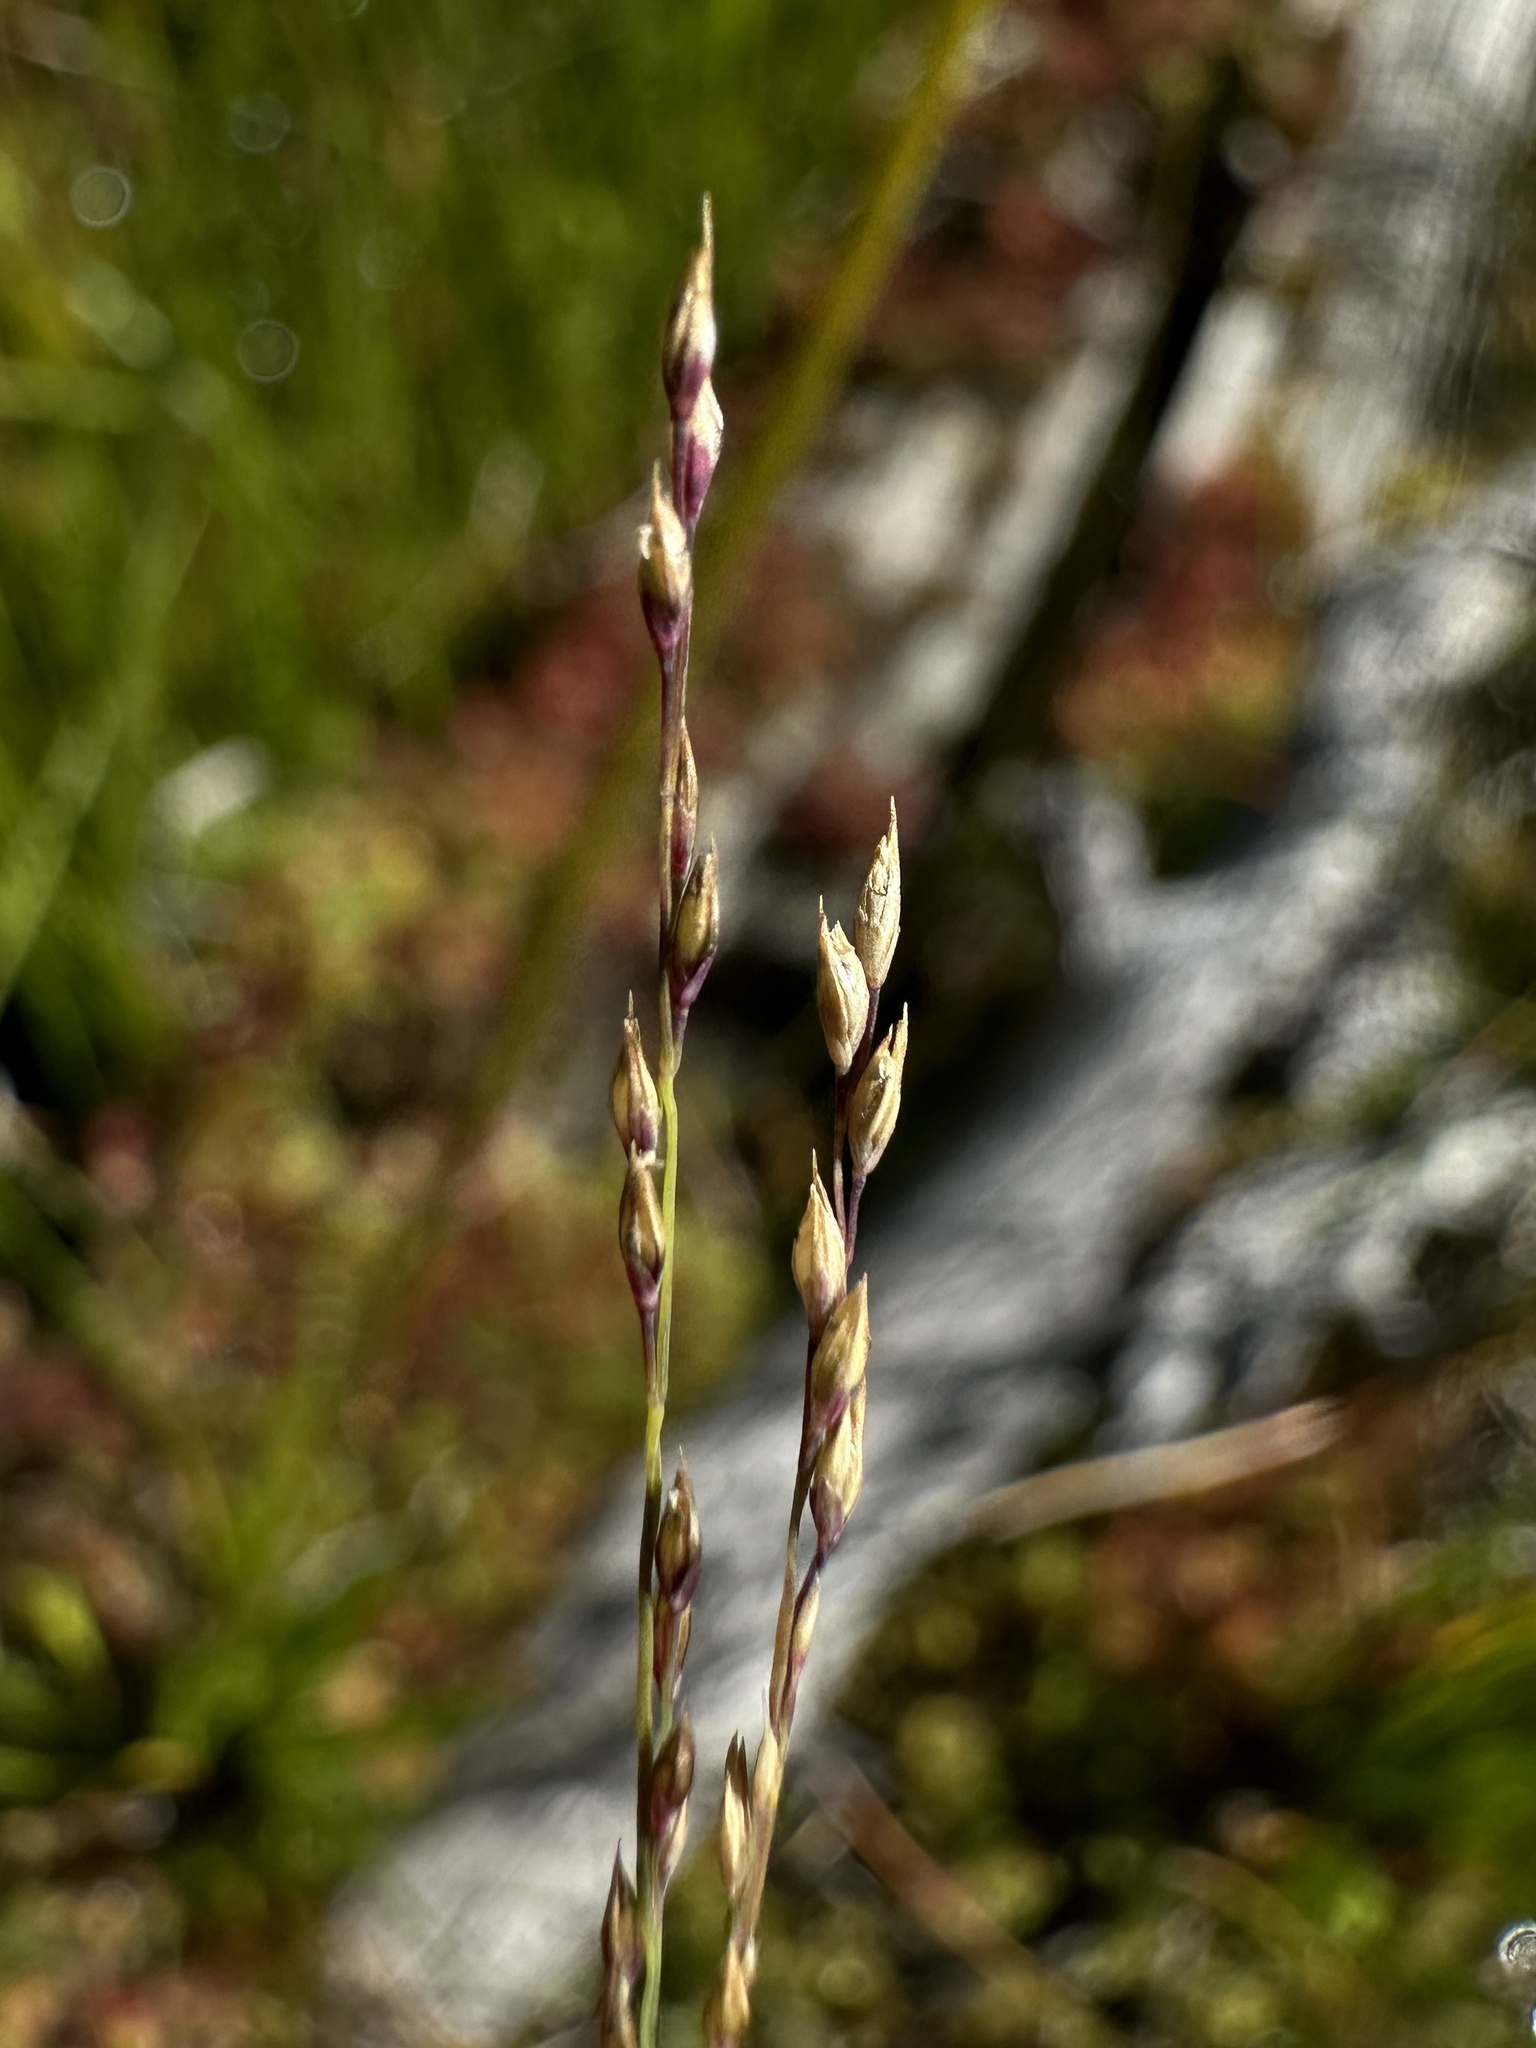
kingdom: Plantae
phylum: Tracheophyta
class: Liliopsida
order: Poales
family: Poaceae
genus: Muhlenbergia
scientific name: Muhlenbergia filiformis
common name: Pull-up muhly
